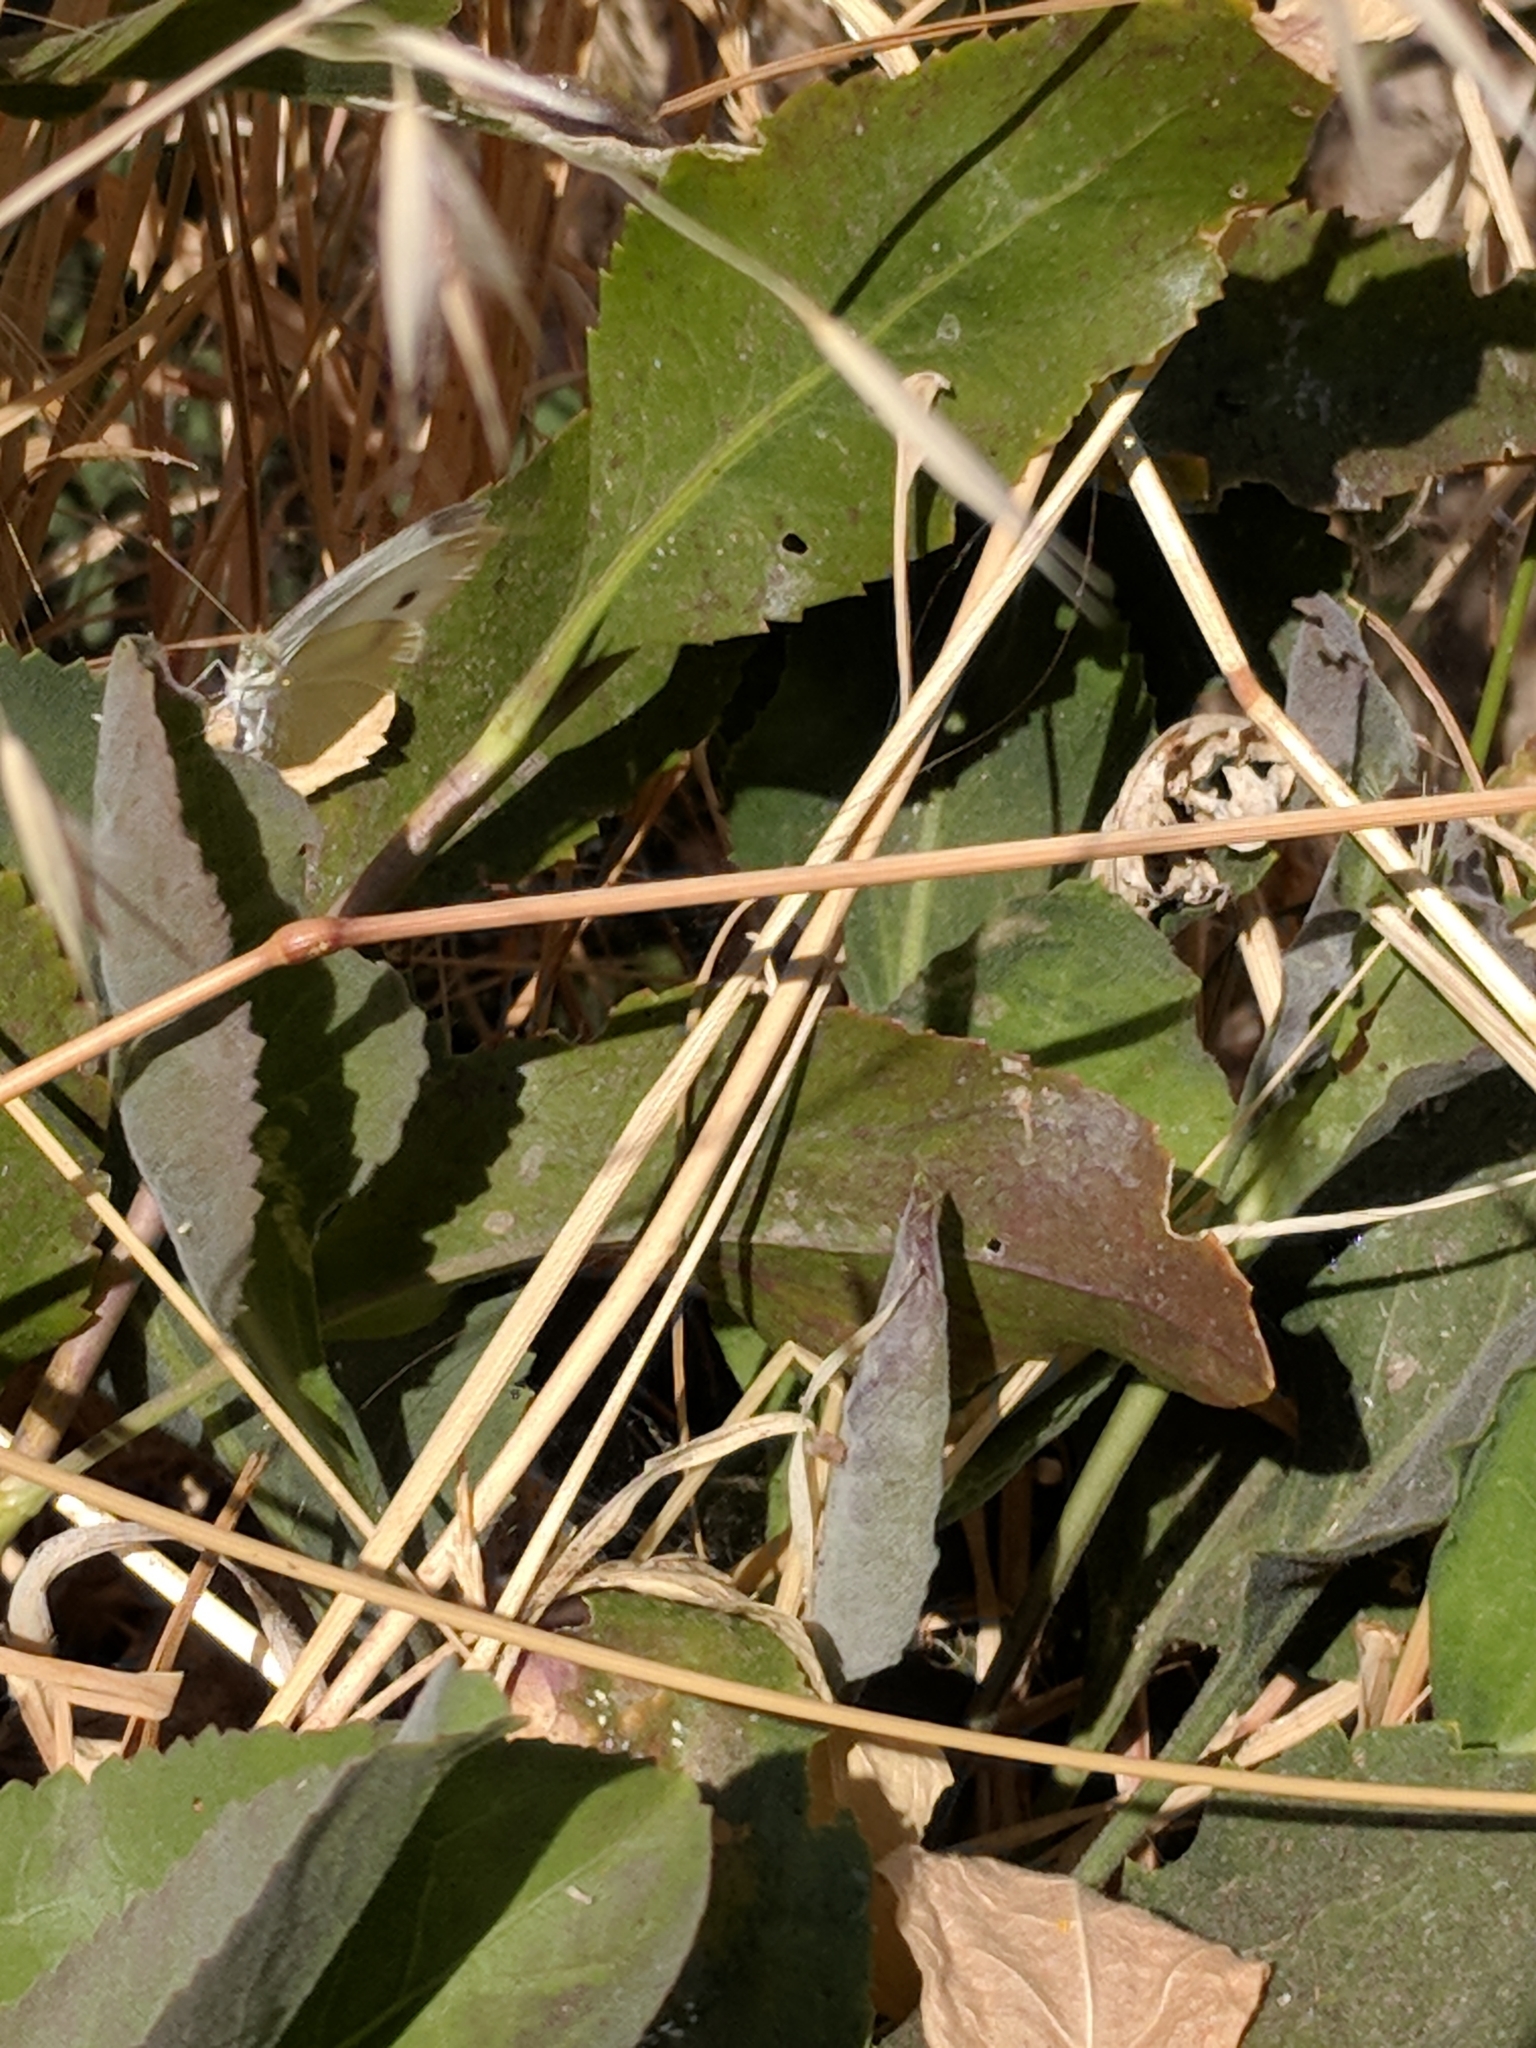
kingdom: Animalia
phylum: Arthropoda
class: Insecta
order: Lepidoptera
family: Pieridae
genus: Pieris
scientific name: Pieris rapae
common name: Small white
